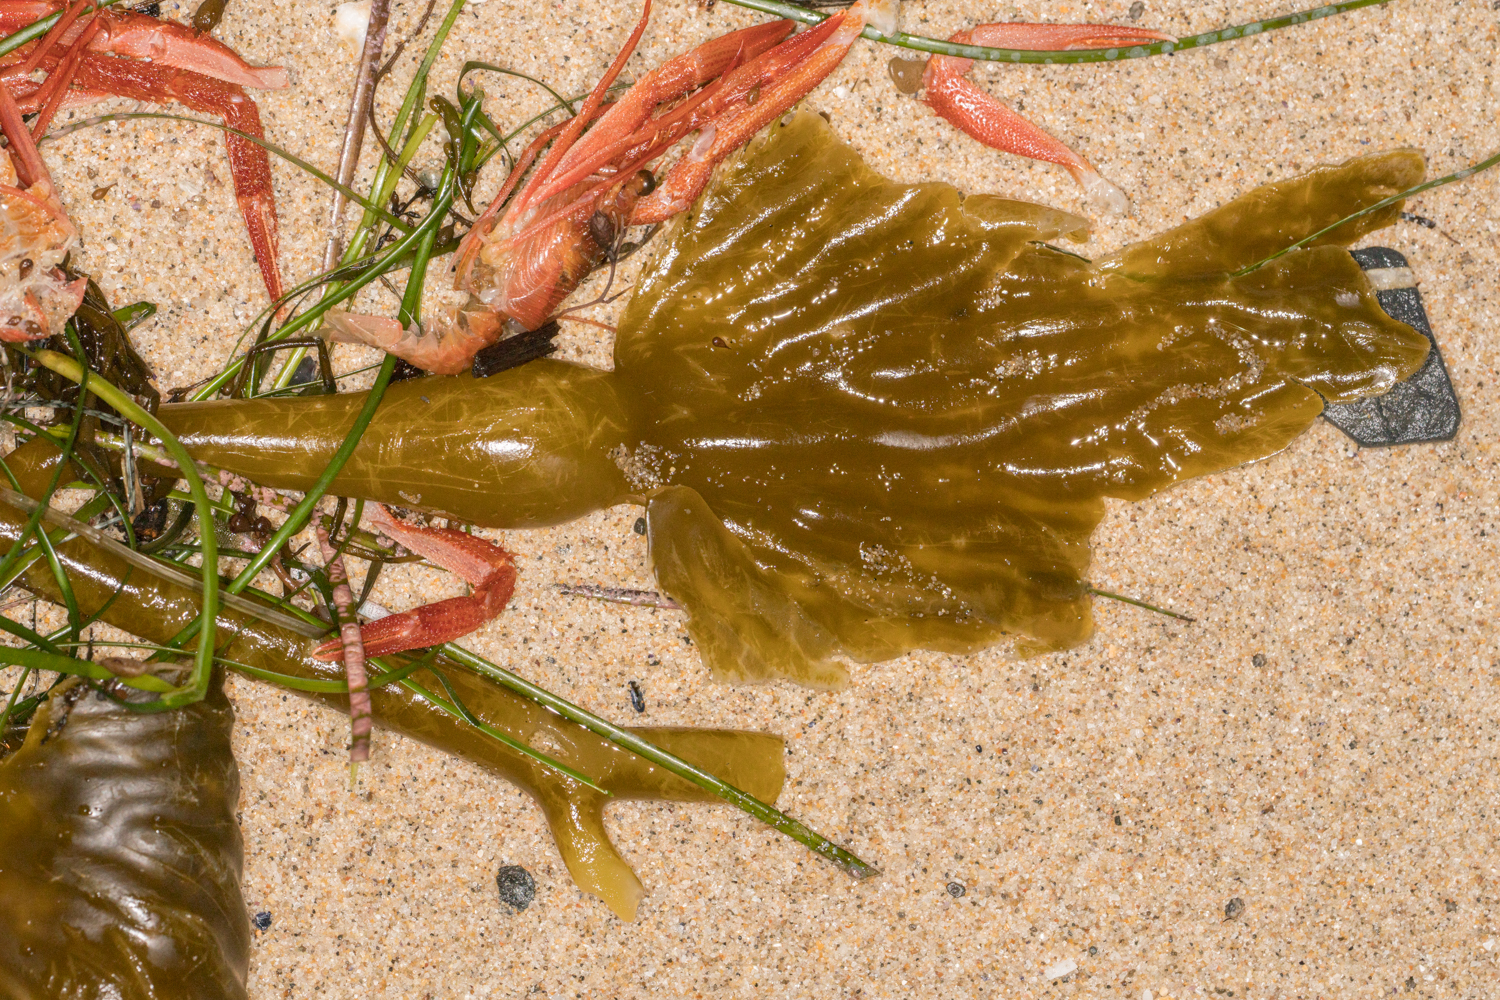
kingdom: Chromista
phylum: Ochrophyta
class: Phaeophyceae
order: Laminariales
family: Laminariaceae
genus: Macrocystis
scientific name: Macrocystis pyrifera
